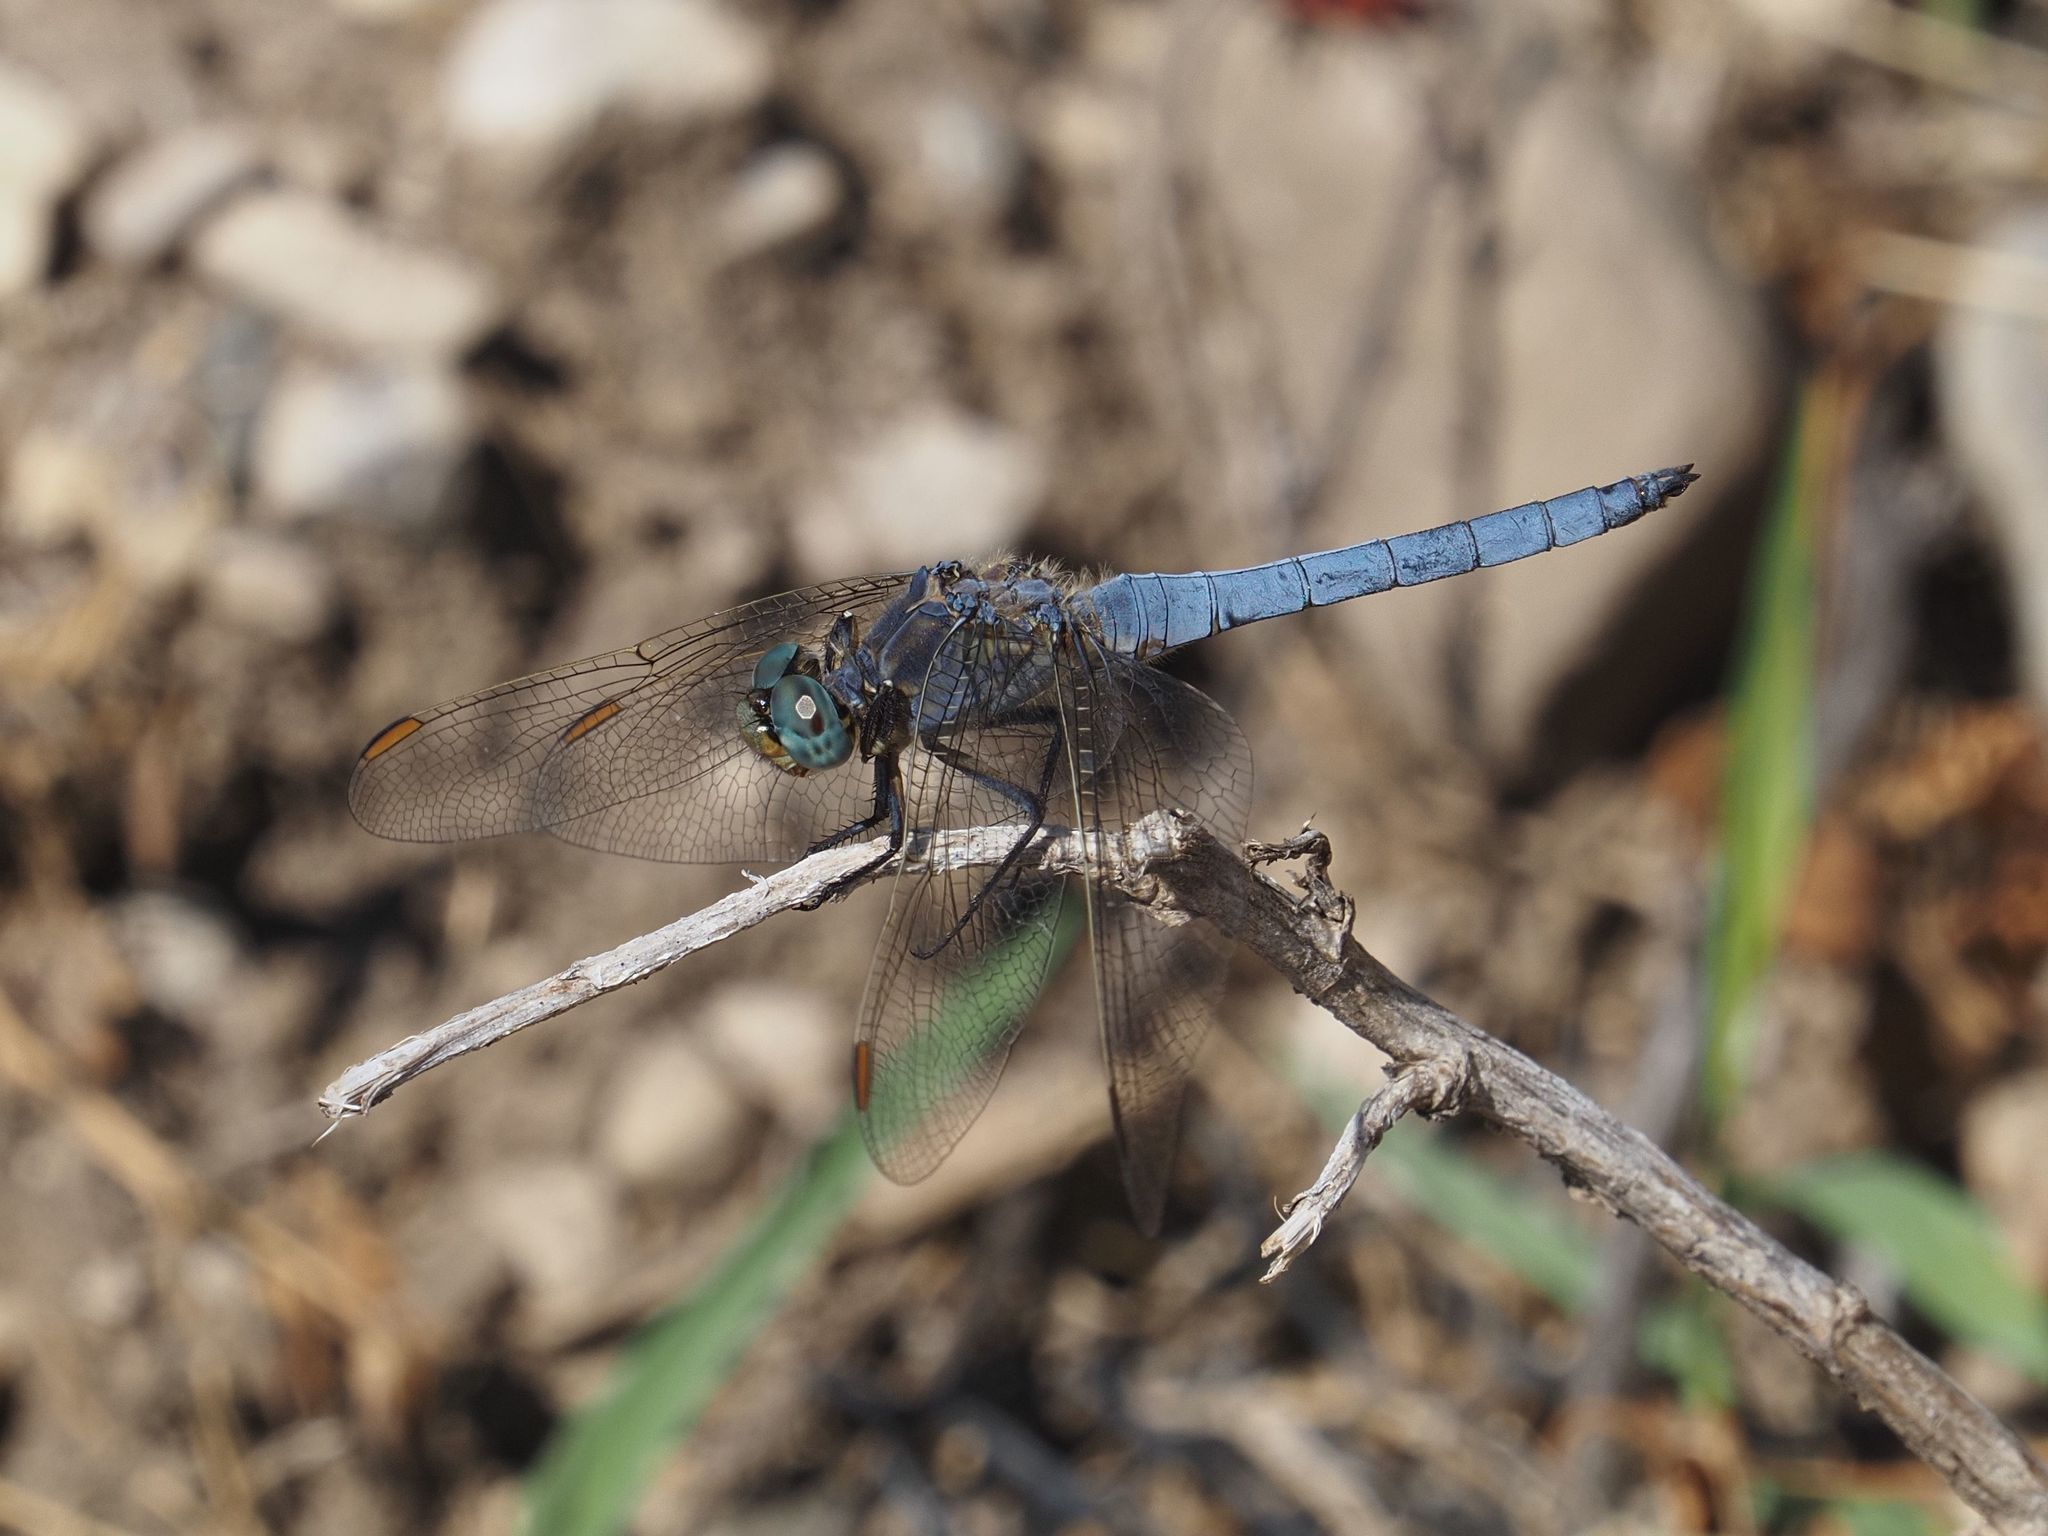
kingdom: Animalia
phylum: Arthropoda
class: Insecta
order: Odonata
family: Libellulidae
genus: Orthetrum
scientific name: Orthetrum coerulescens
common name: Keeled skimmer
